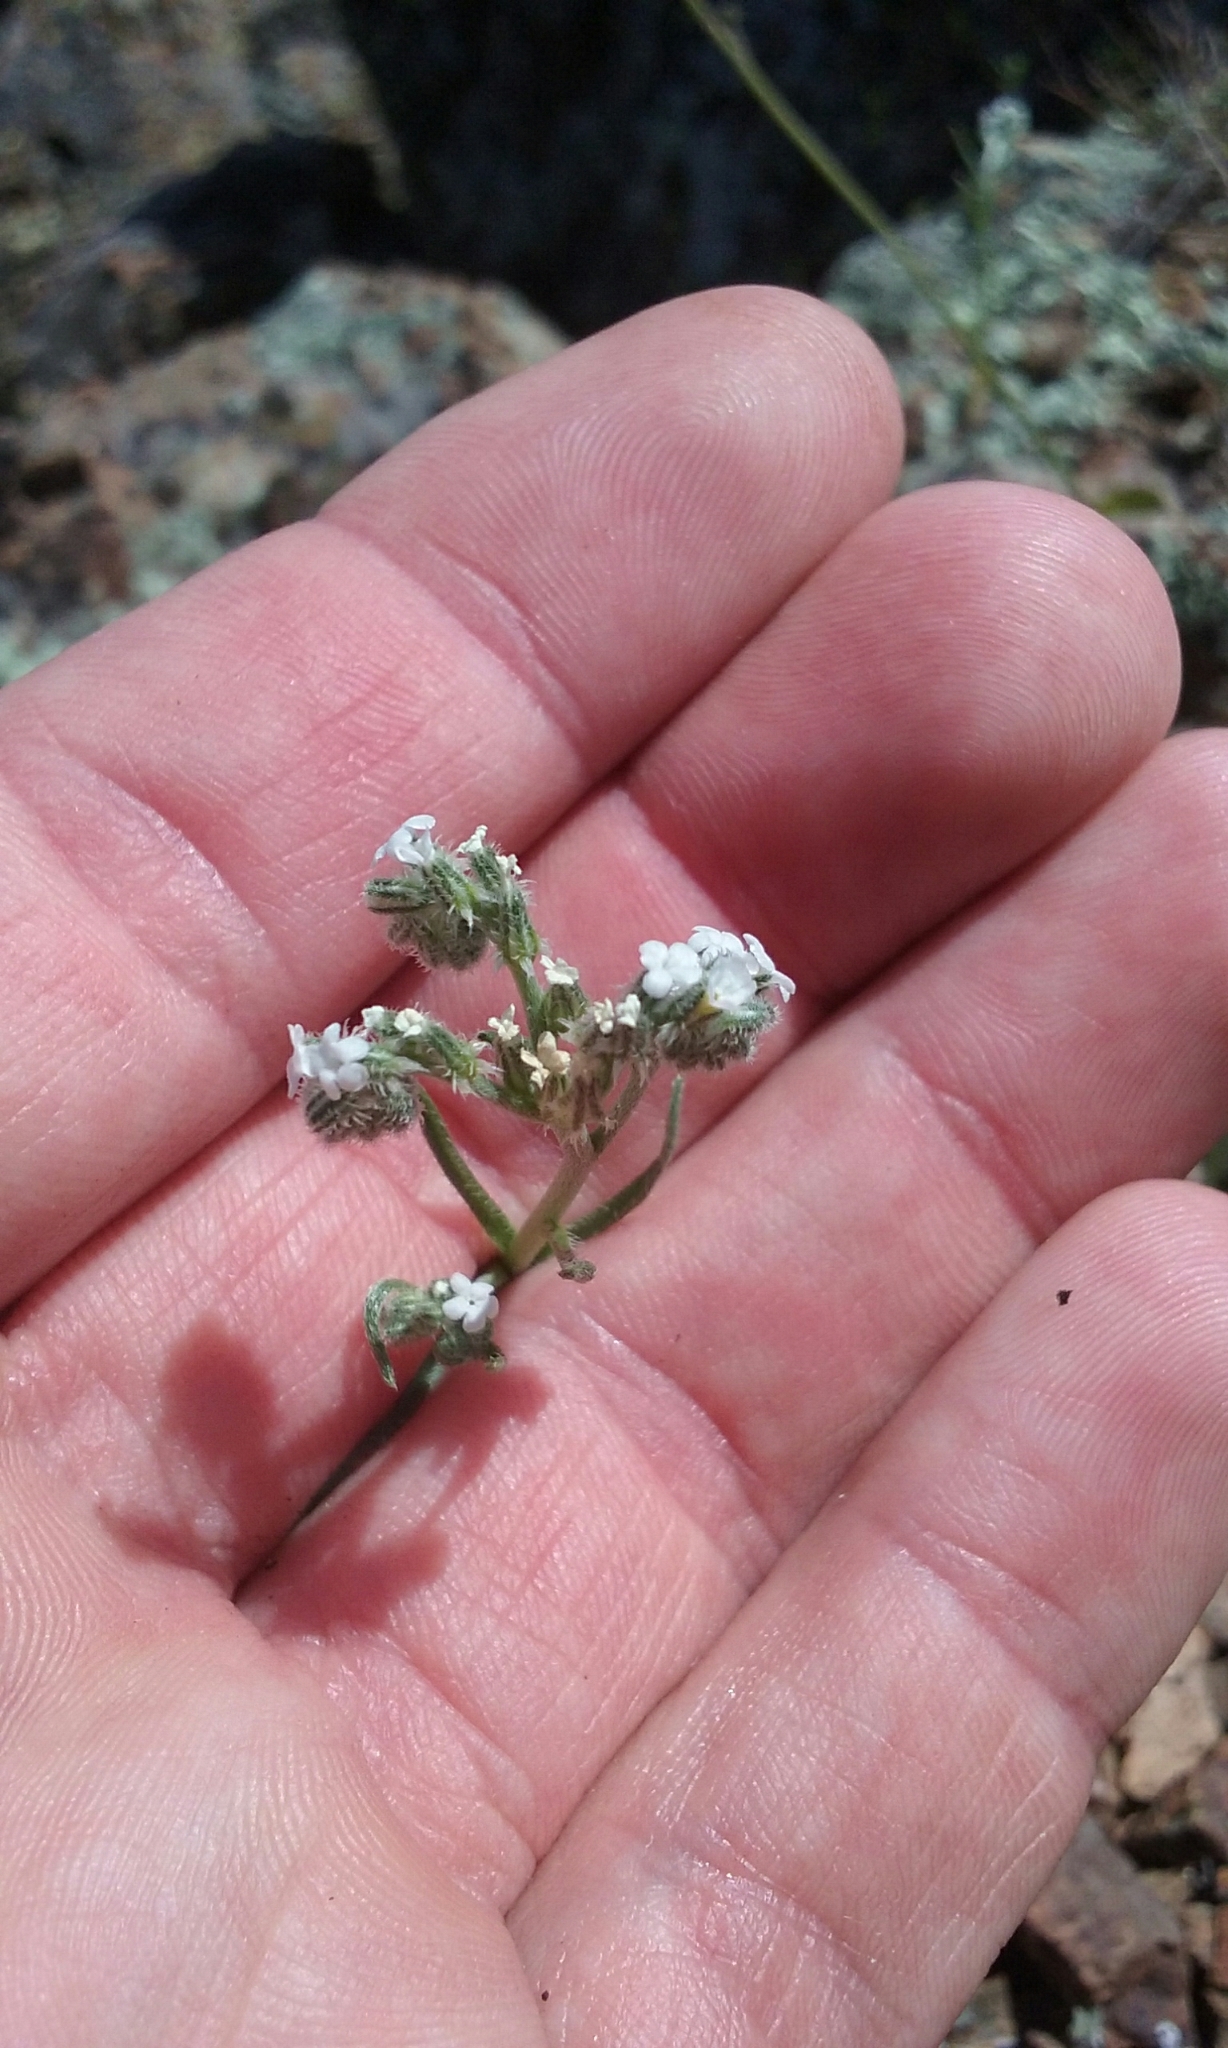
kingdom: Plantae
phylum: Tracheophyta
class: Magnoliopsida
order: Boraginales
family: Boraginaceae
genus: Cryptantha
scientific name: Cryptantha flaccida
